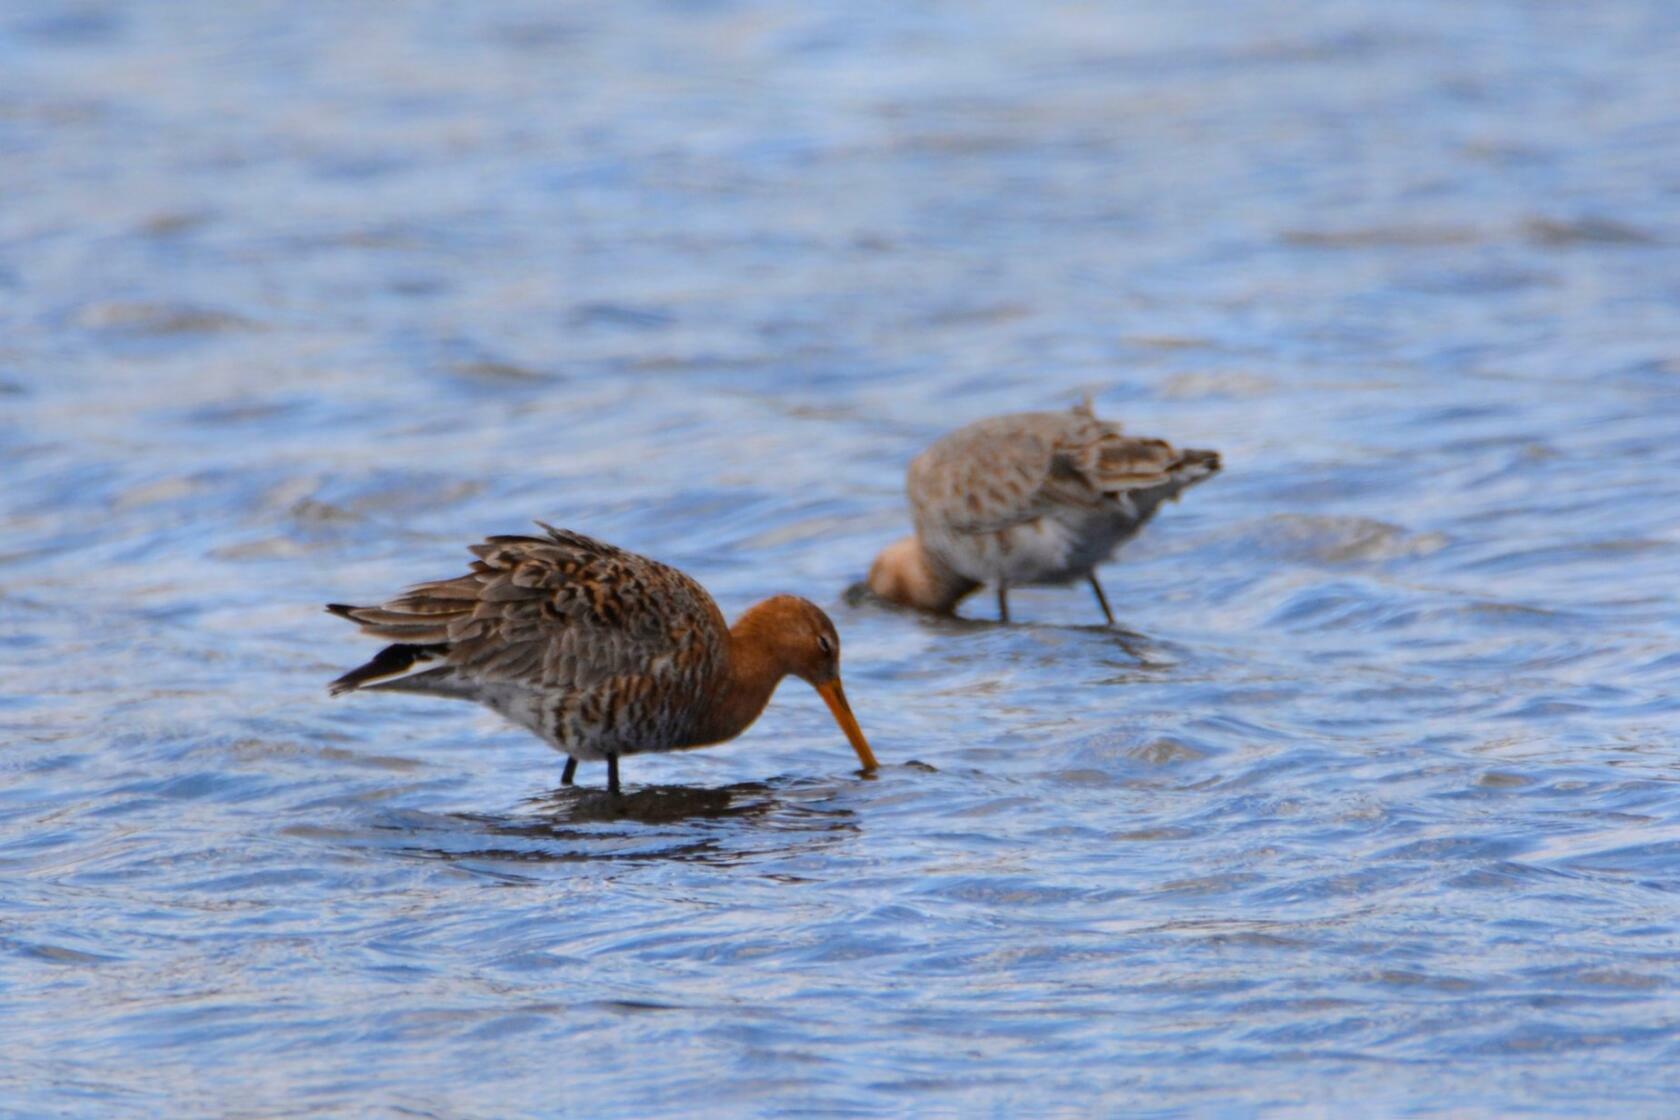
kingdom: Animalia
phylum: Chordata
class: Aves
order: Charadriiformes
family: Scolopacidae
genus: Limosa
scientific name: Limosa limosa
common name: Black-tailed godwit
